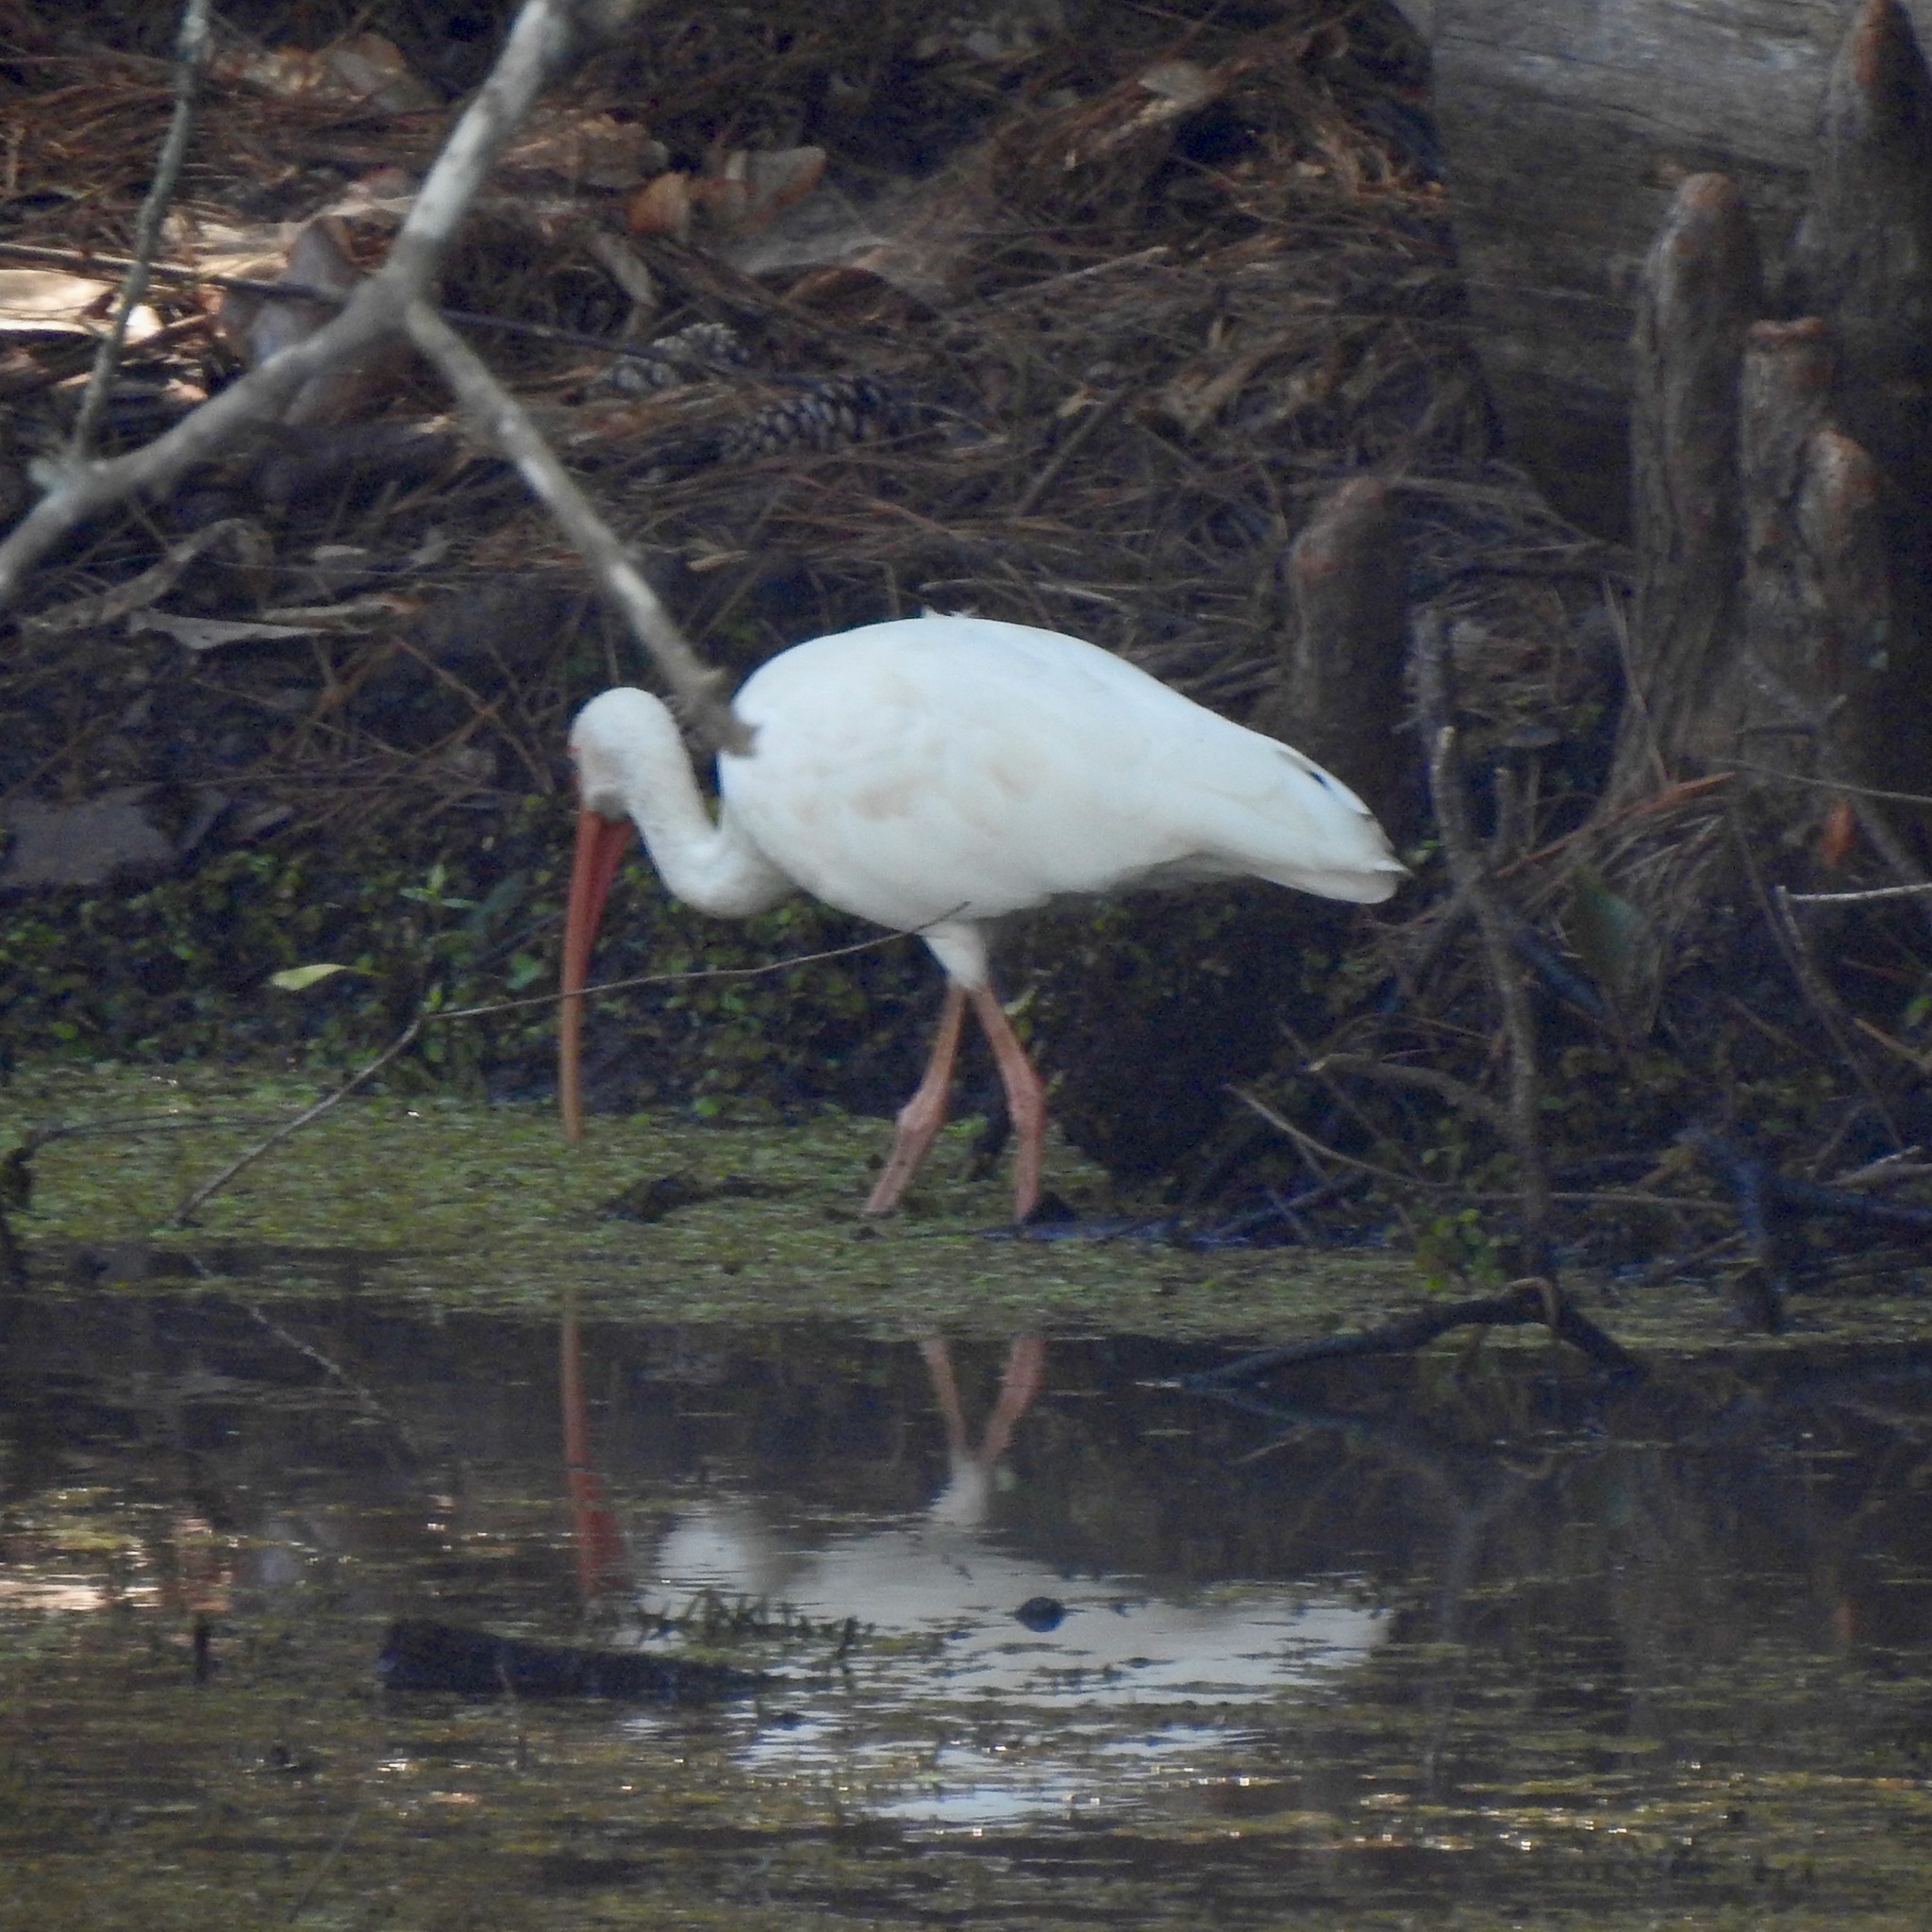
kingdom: Animalia
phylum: Chordata
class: Aves
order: Pelecaniformes
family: Threskiornithidae
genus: Eudocimus
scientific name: Eudocimus albus
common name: White ibis
